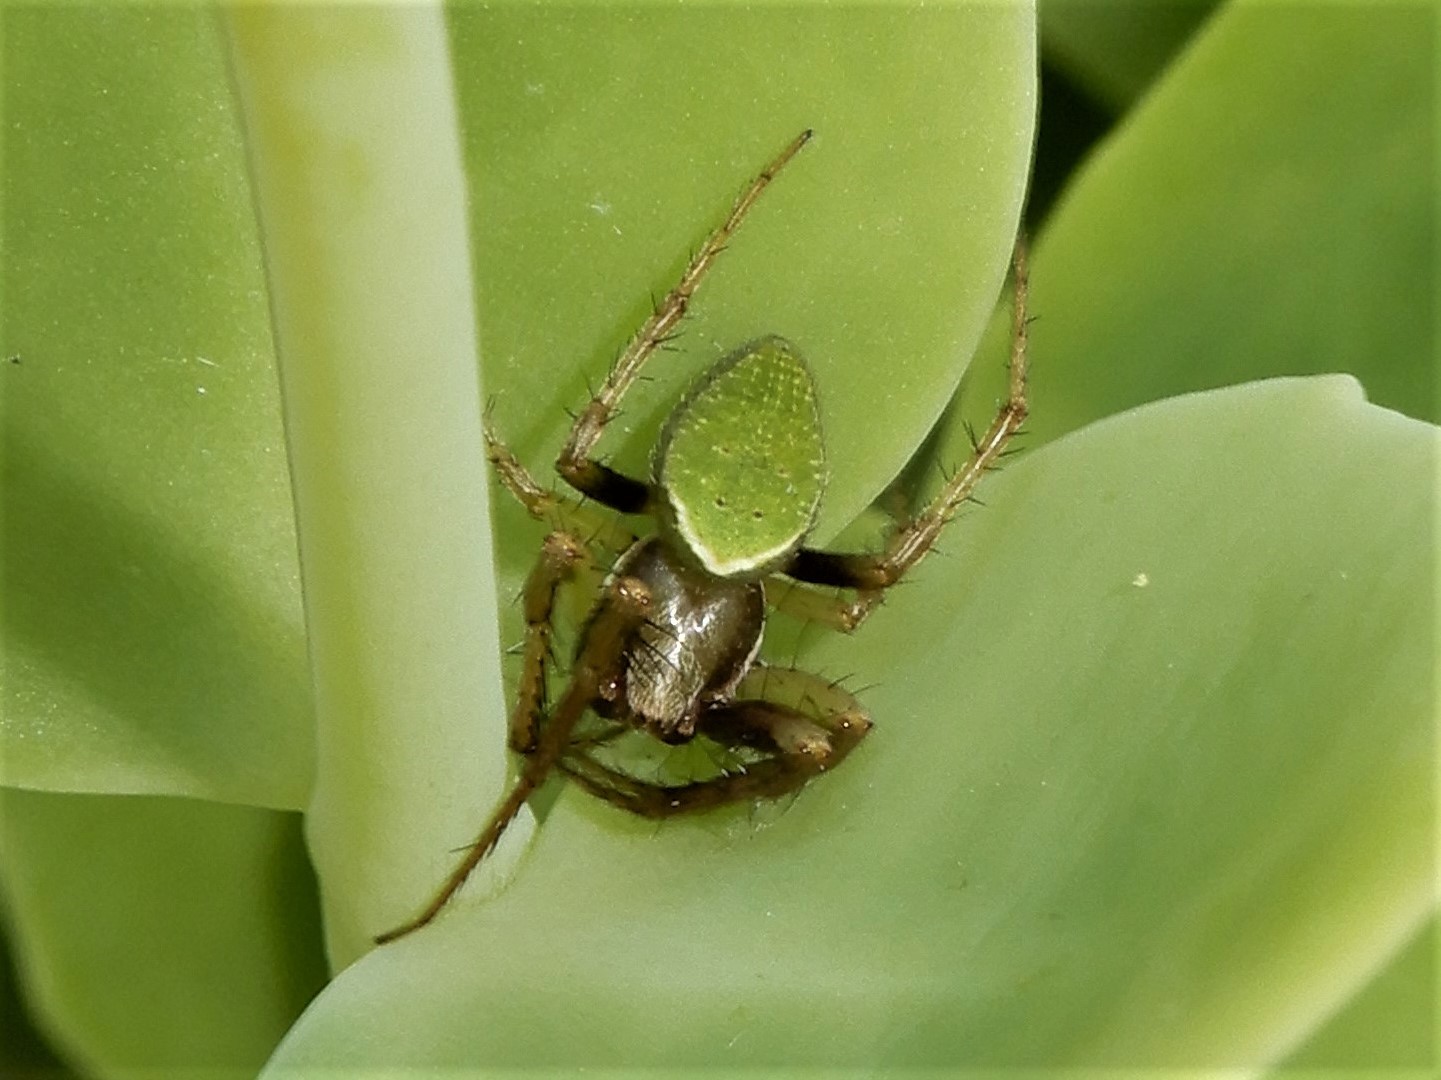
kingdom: Animalia
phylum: Arthropoda
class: Arachnida
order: Araneae
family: Araneidae
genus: Colaranea
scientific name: Colaranea viriditas
